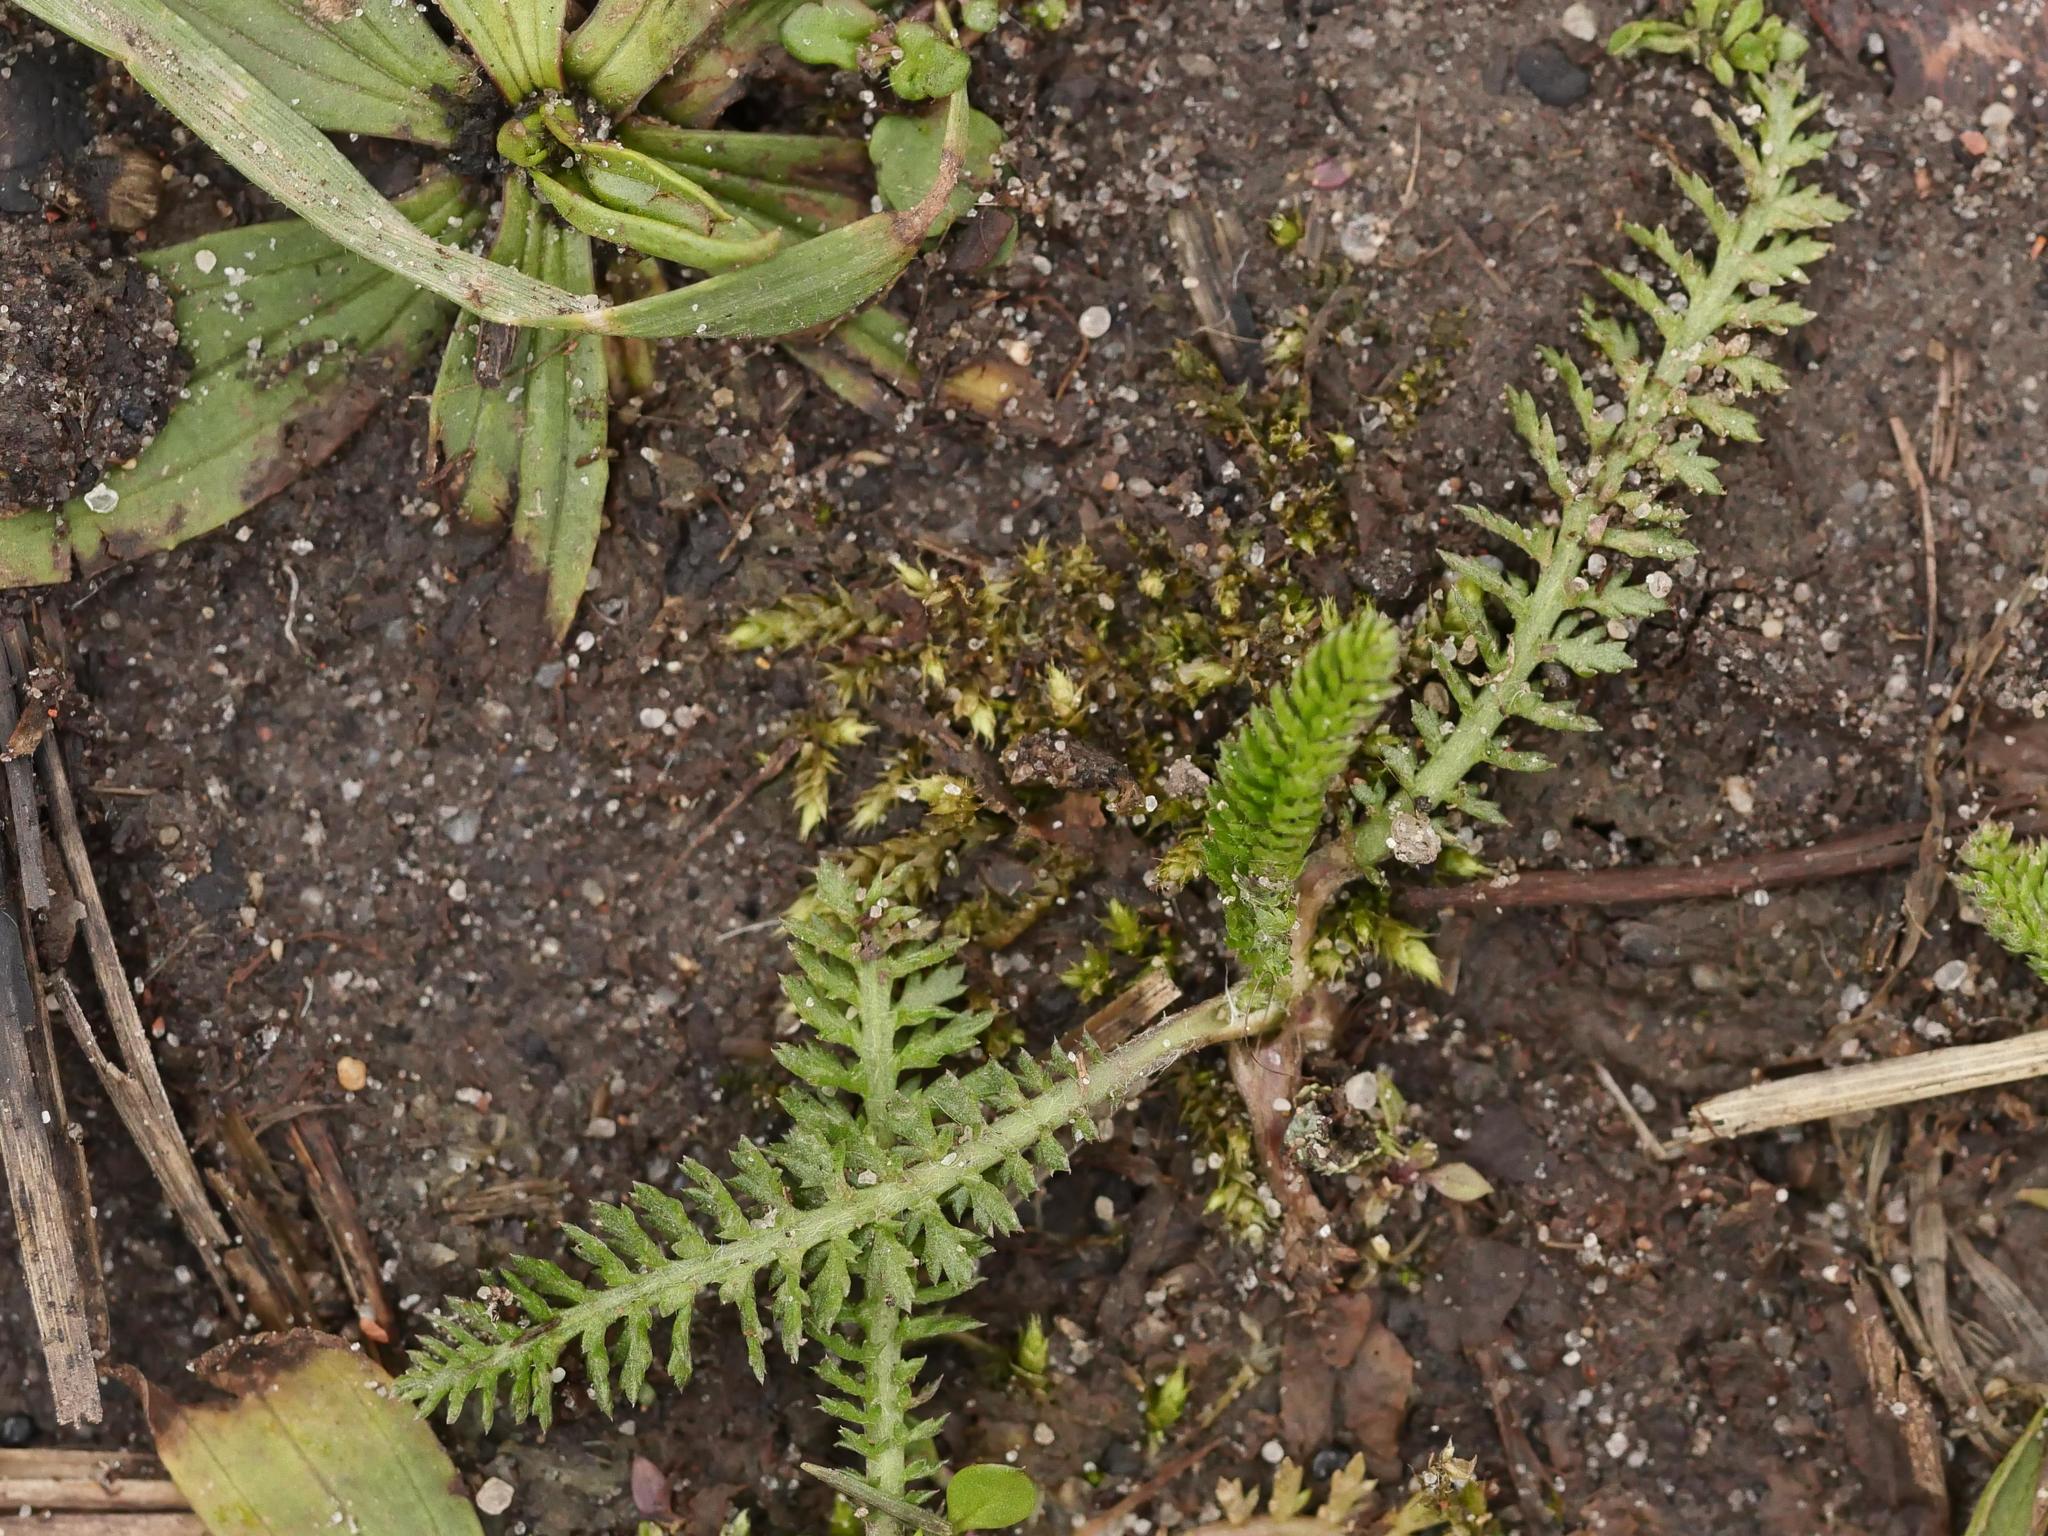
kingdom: Plantae
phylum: Tracheophyta
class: Magnoliopsida
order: Asterales
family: Asteraceae
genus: Achillea
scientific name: Achillea millefolium
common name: Yarrow
